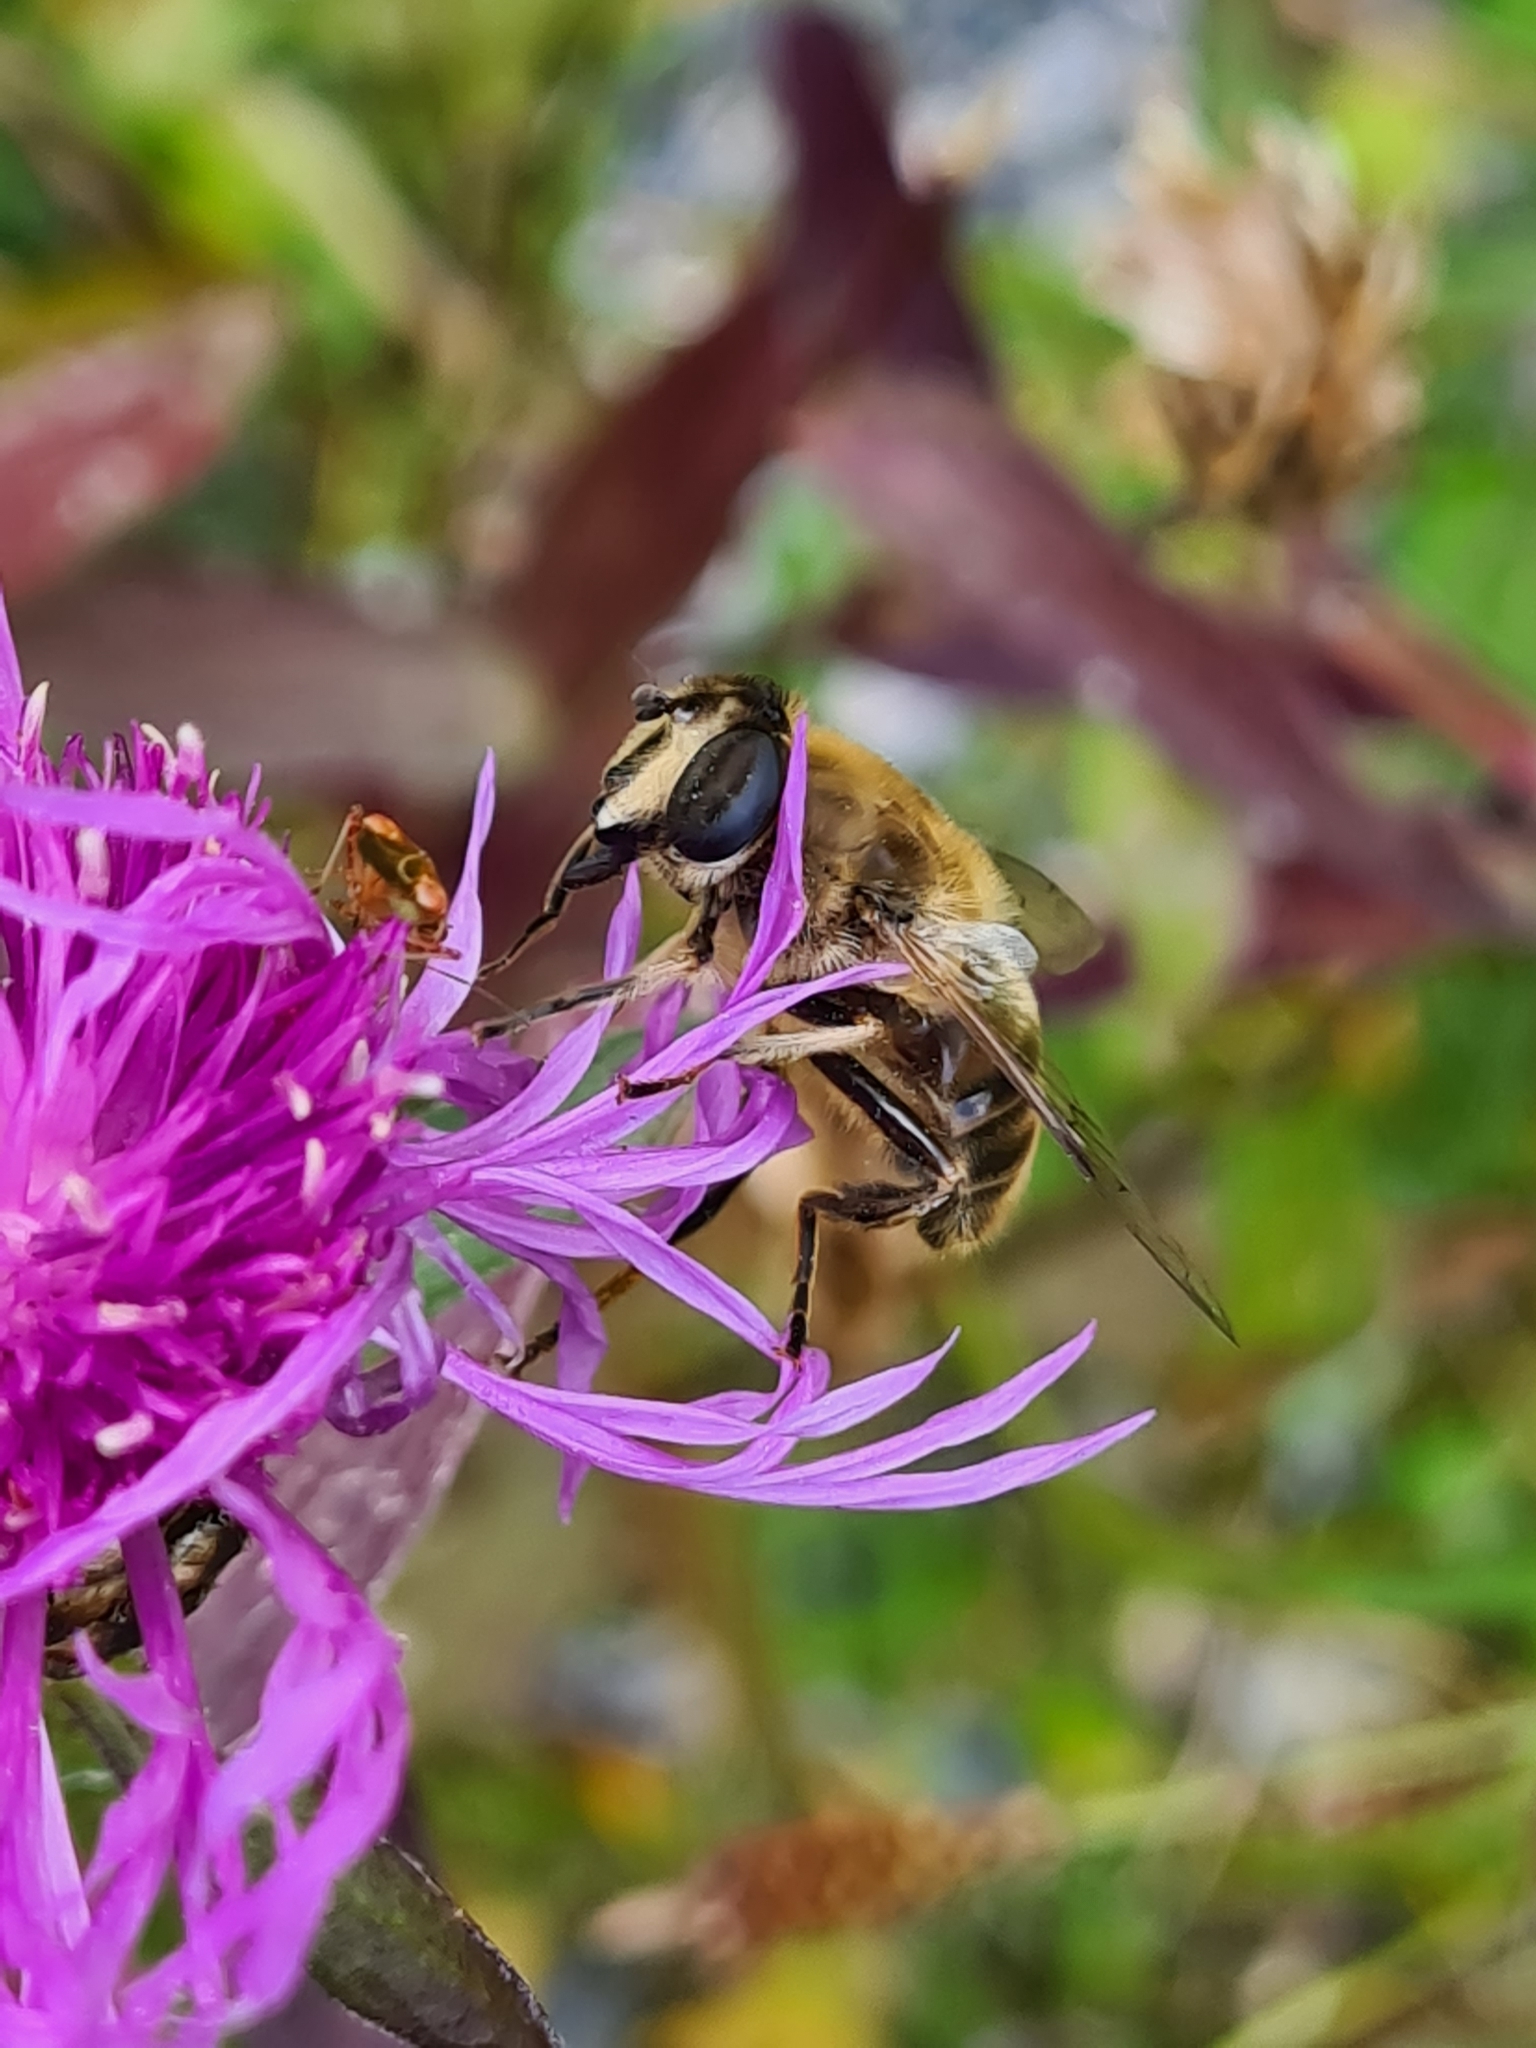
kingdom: Animalia
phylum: Arthropoda
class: Insecta
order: Diptera
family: Syrphidae
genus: Eristalis
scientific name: Eristalis tenax
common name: Drone fly
